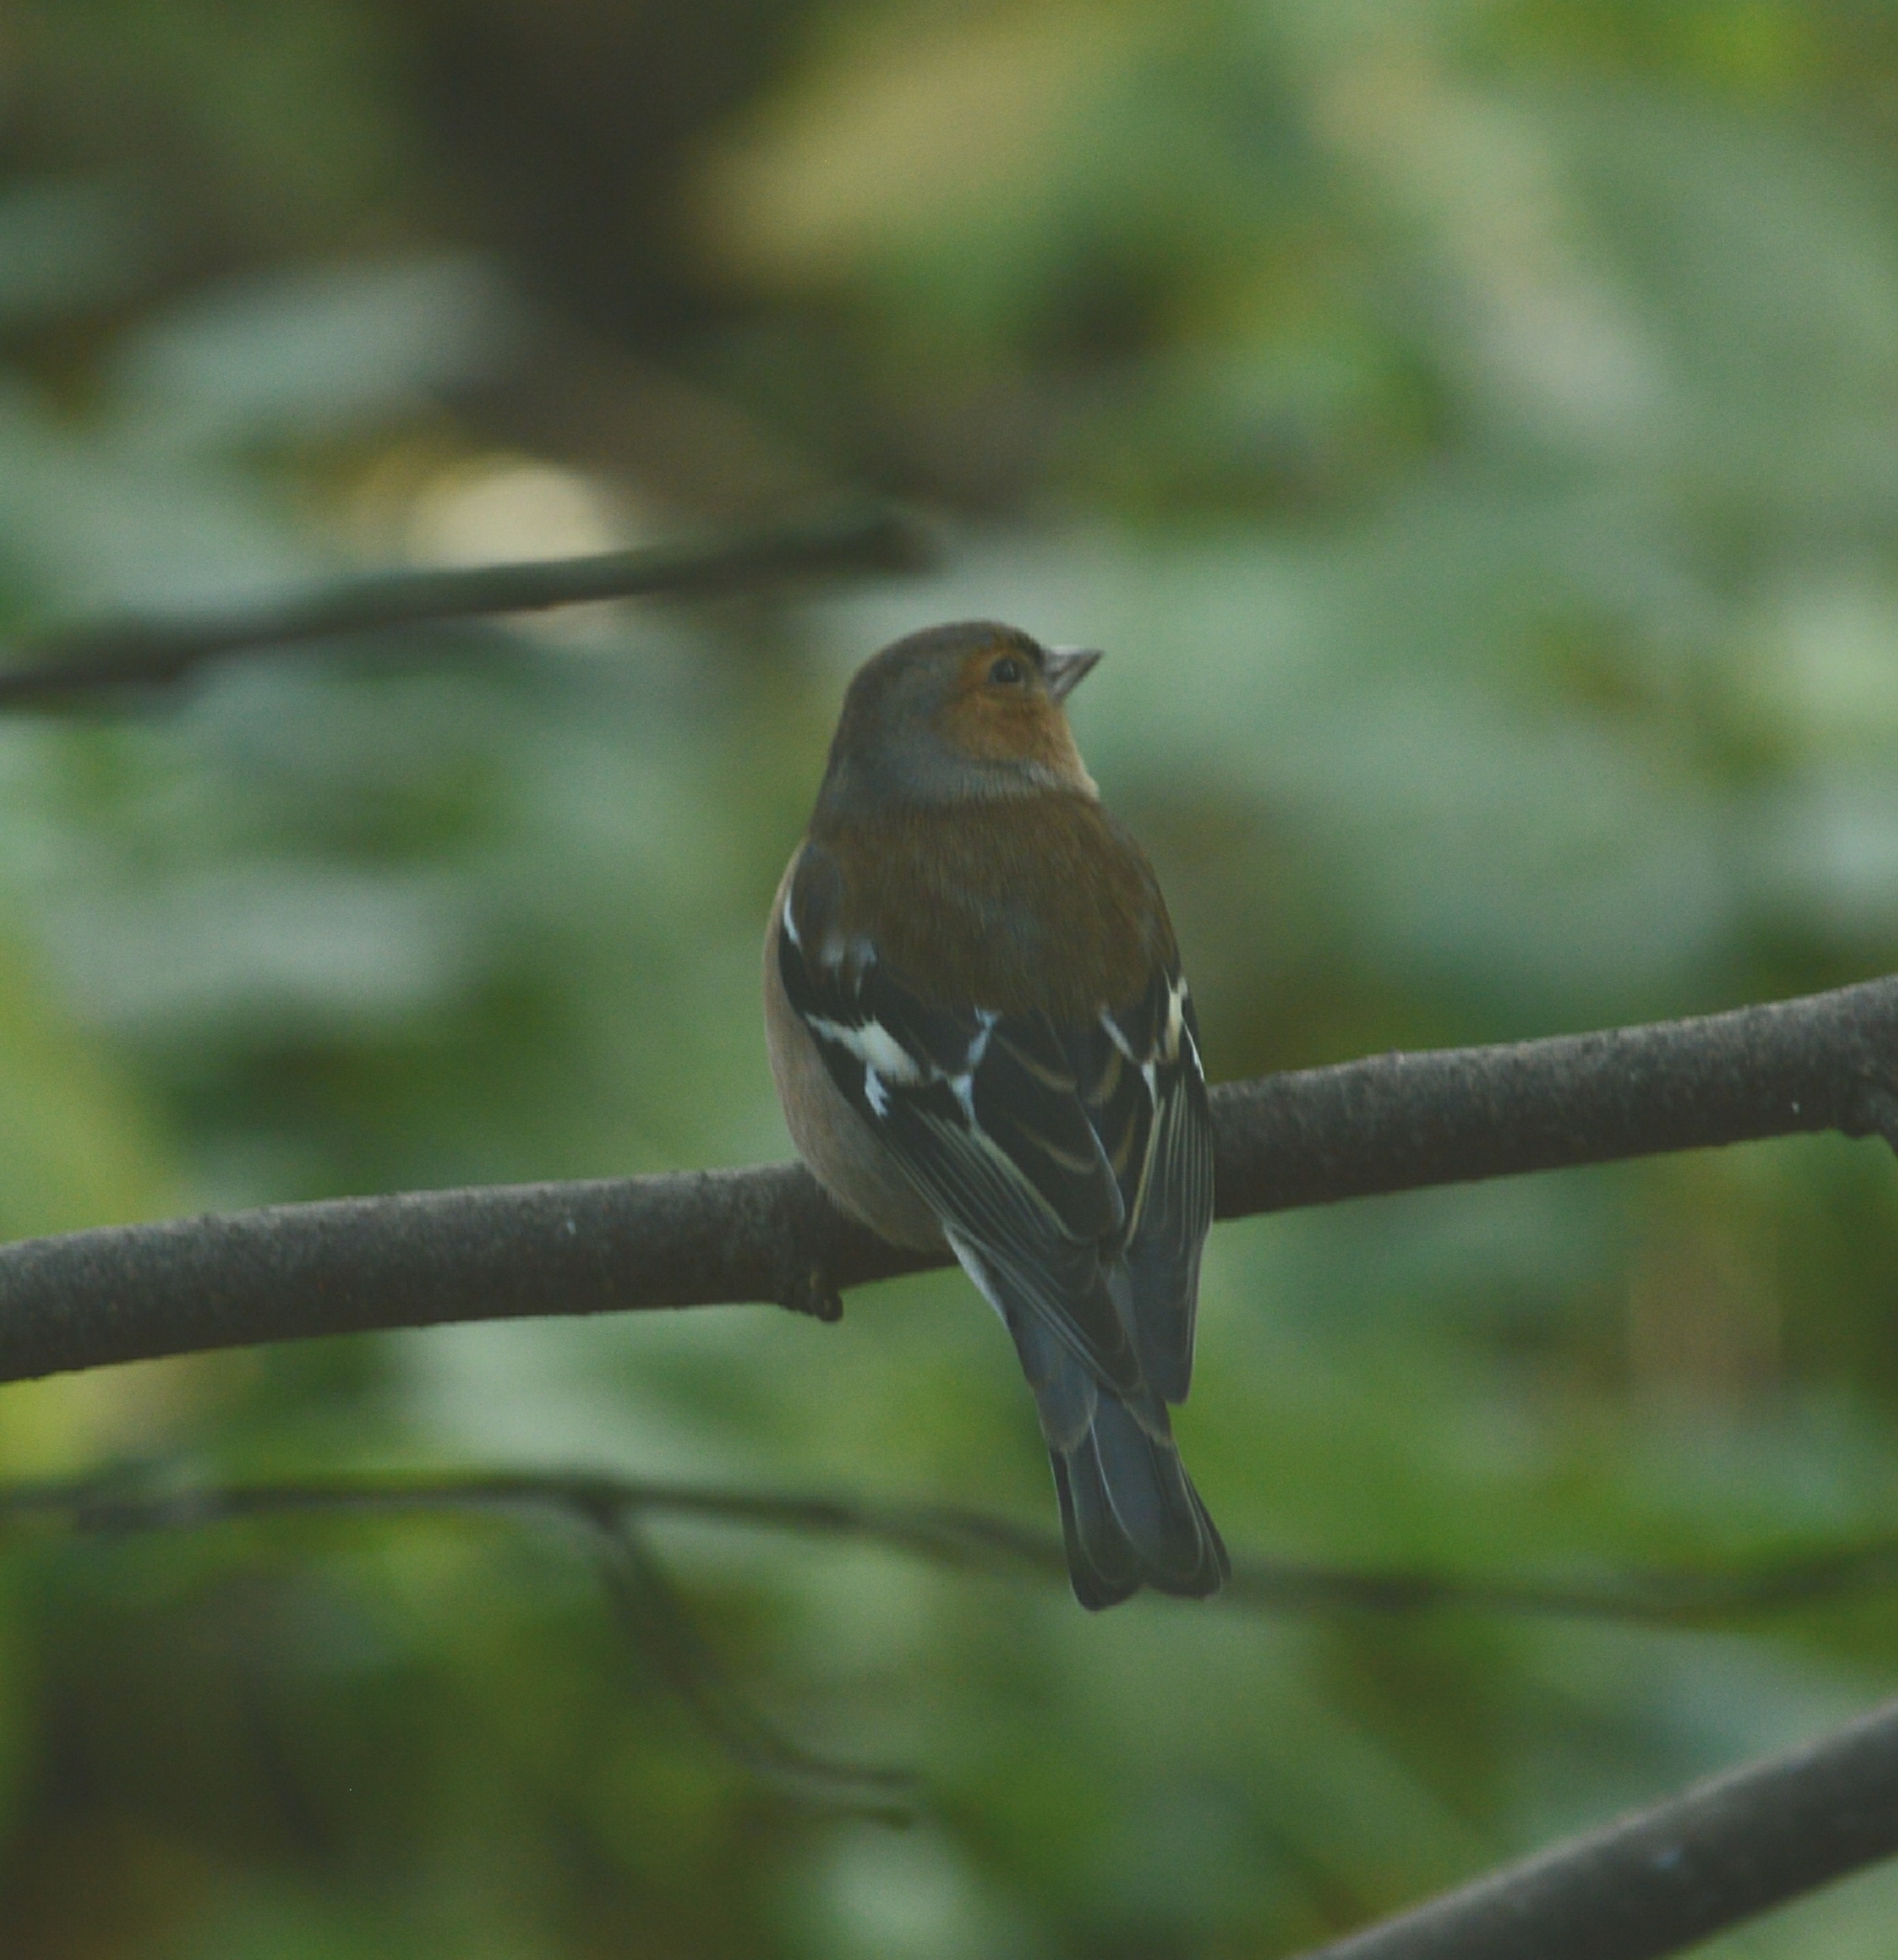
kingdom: Animalia
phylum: Chordata
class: Aves
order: Passeriformes
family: Fringillidae
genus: Fringilla
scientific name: Fringilla coelebs
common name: Common chaffinch
